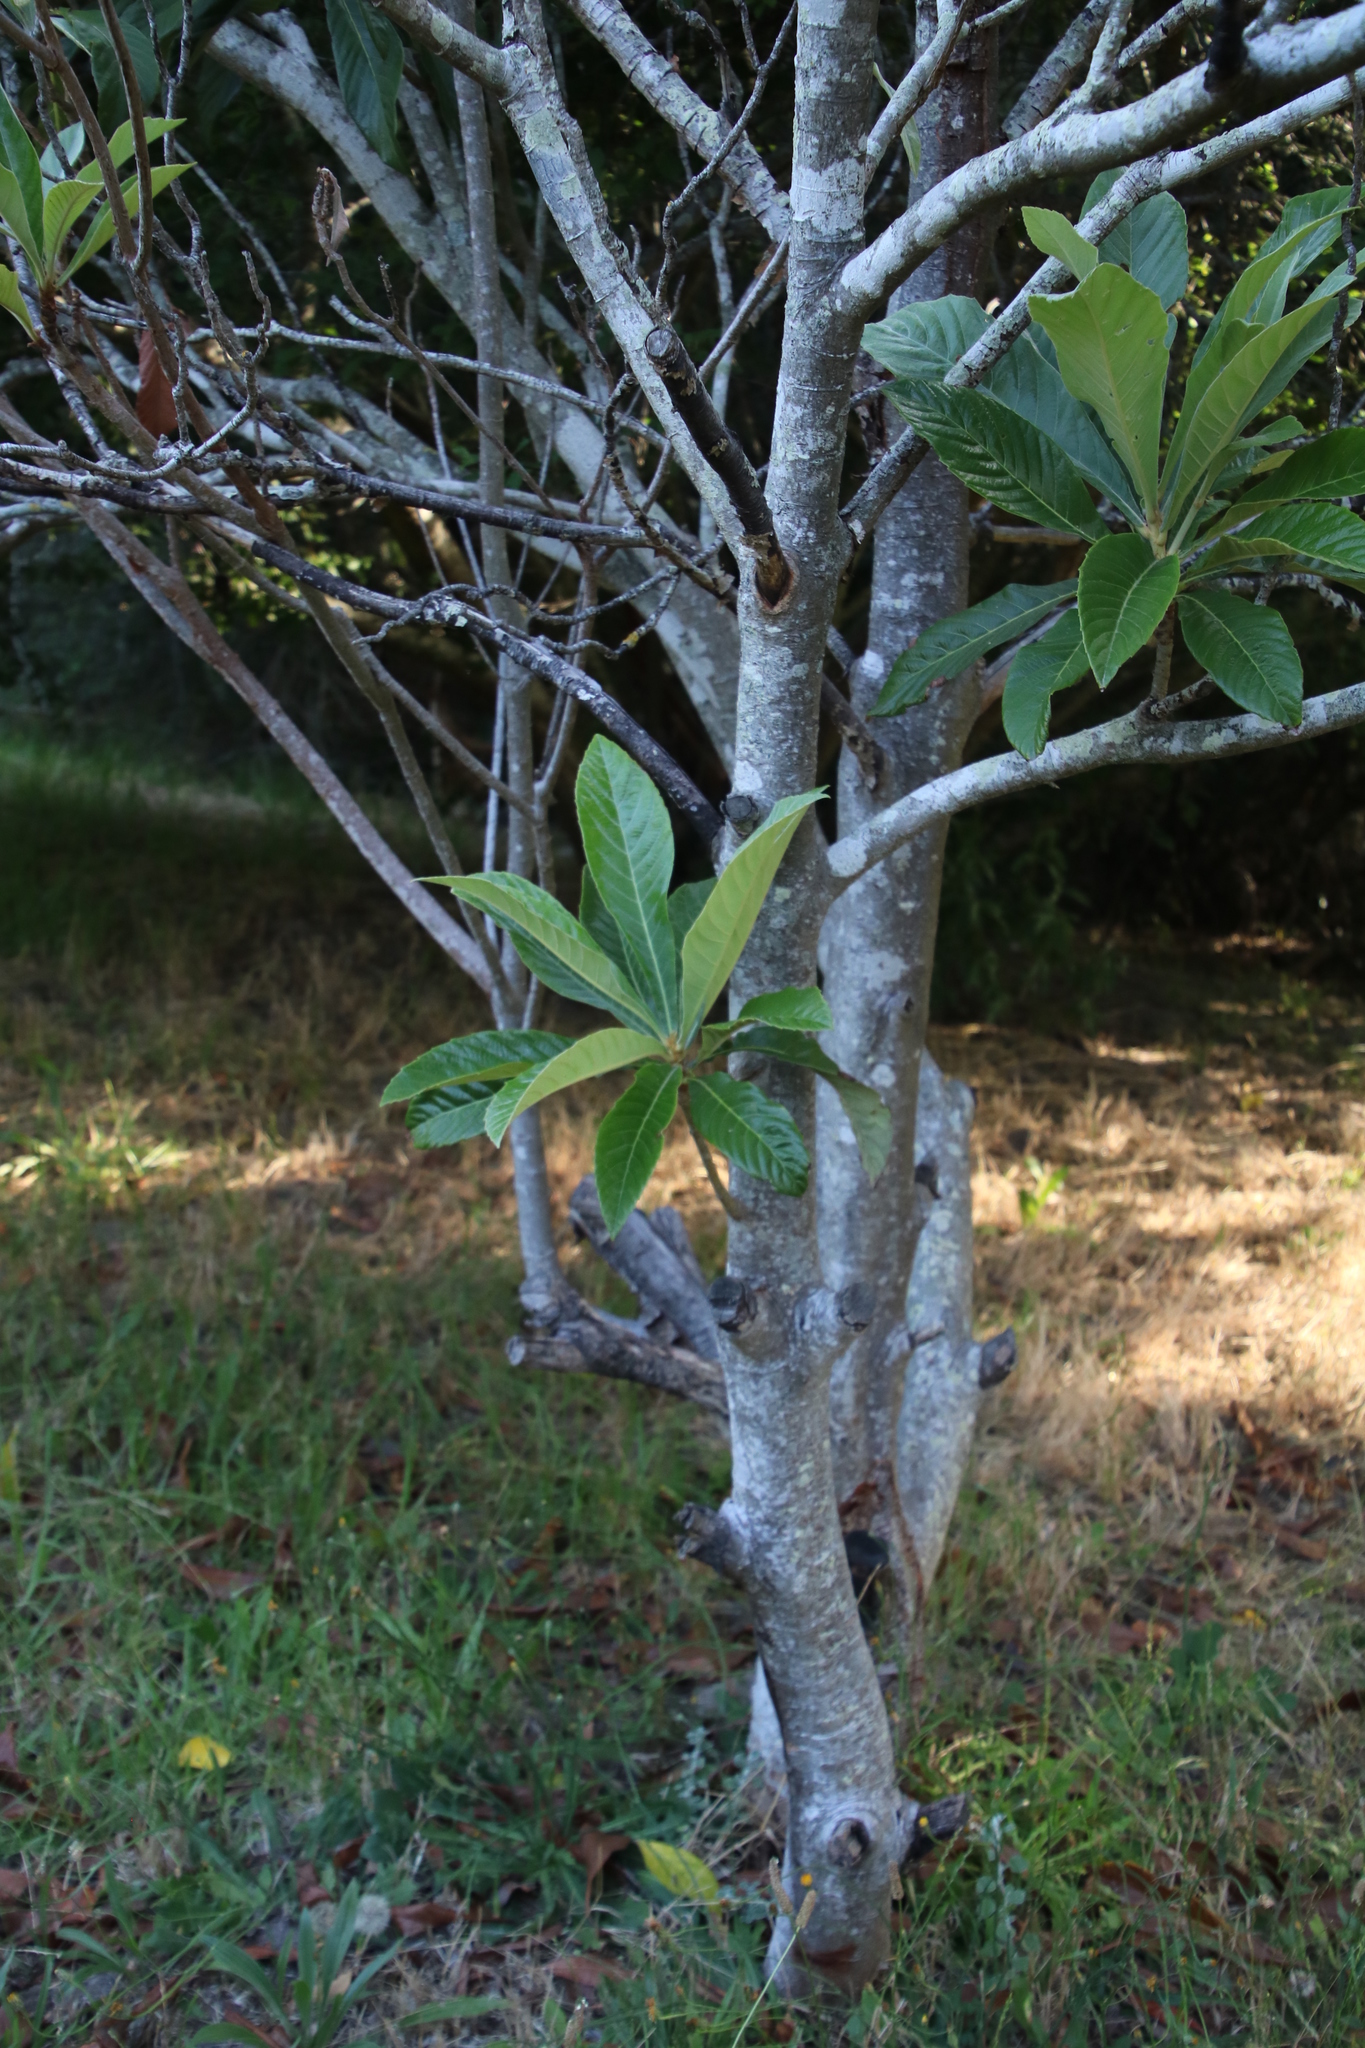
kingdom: Plantae
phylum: Tracheophyta
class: Magnoliopsida
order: Rosales
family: Rosaceae
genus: Rhaphiolepis
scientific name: Rhaphiolepis bibas
